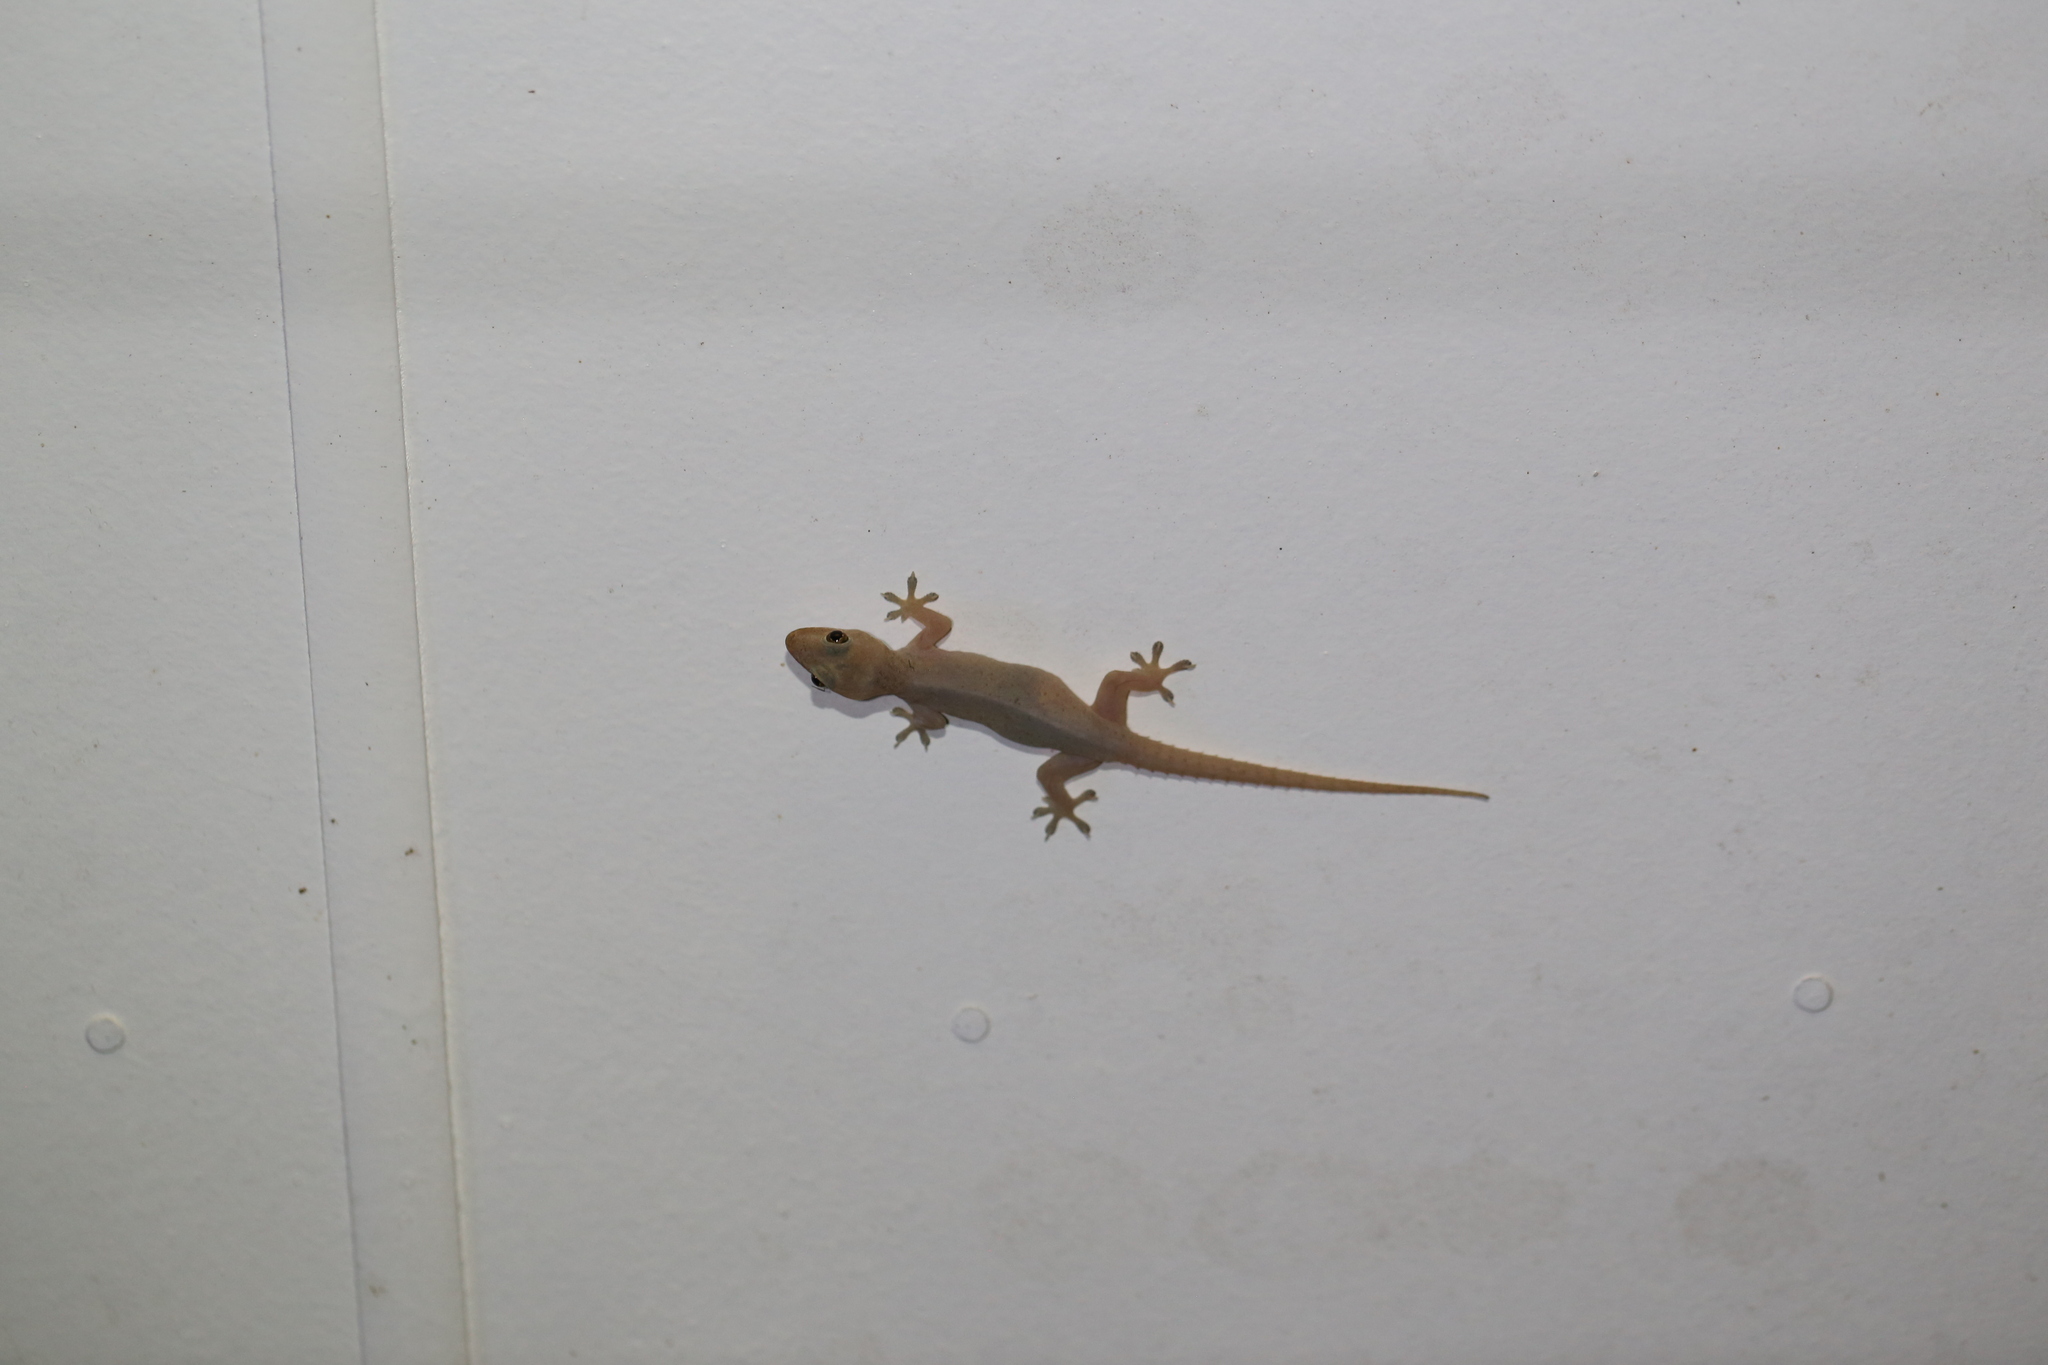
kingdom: Animalia
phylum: Chordata
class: Squamata
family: Gekkonidae
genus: Hemidactylus
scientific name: Hemidactylus frenatus
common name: Common house gecko
